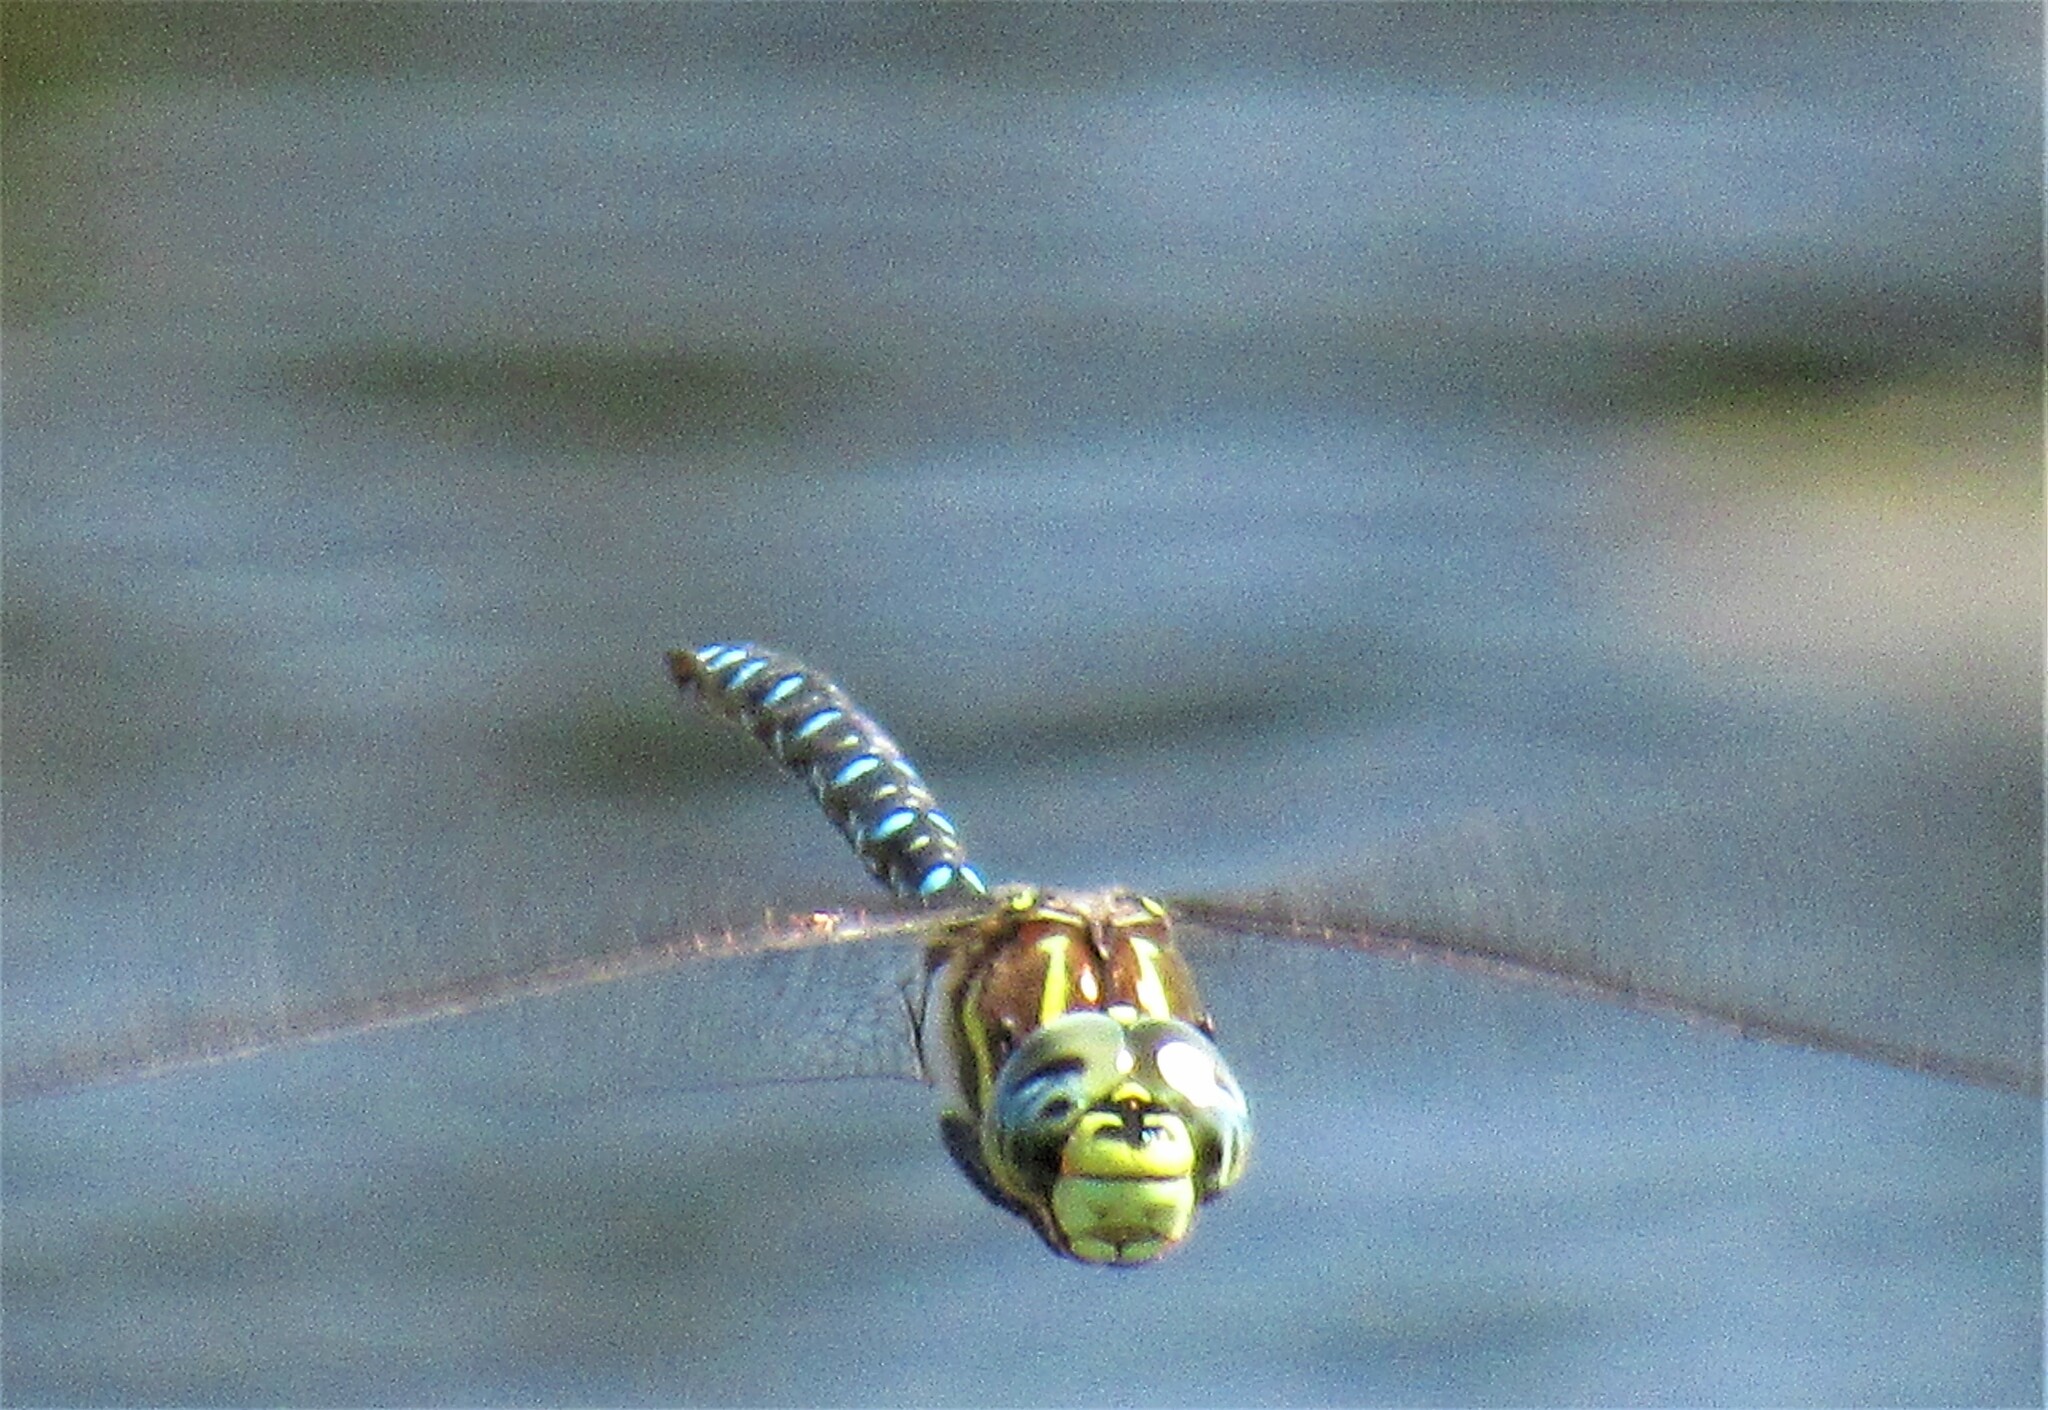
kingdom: Animalia
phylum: Arthropoda
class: Insecta
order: Odonata
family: Aeshnidae
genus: Aeshna
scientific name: Aeshna palmata
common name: Paddle-tailed darner
